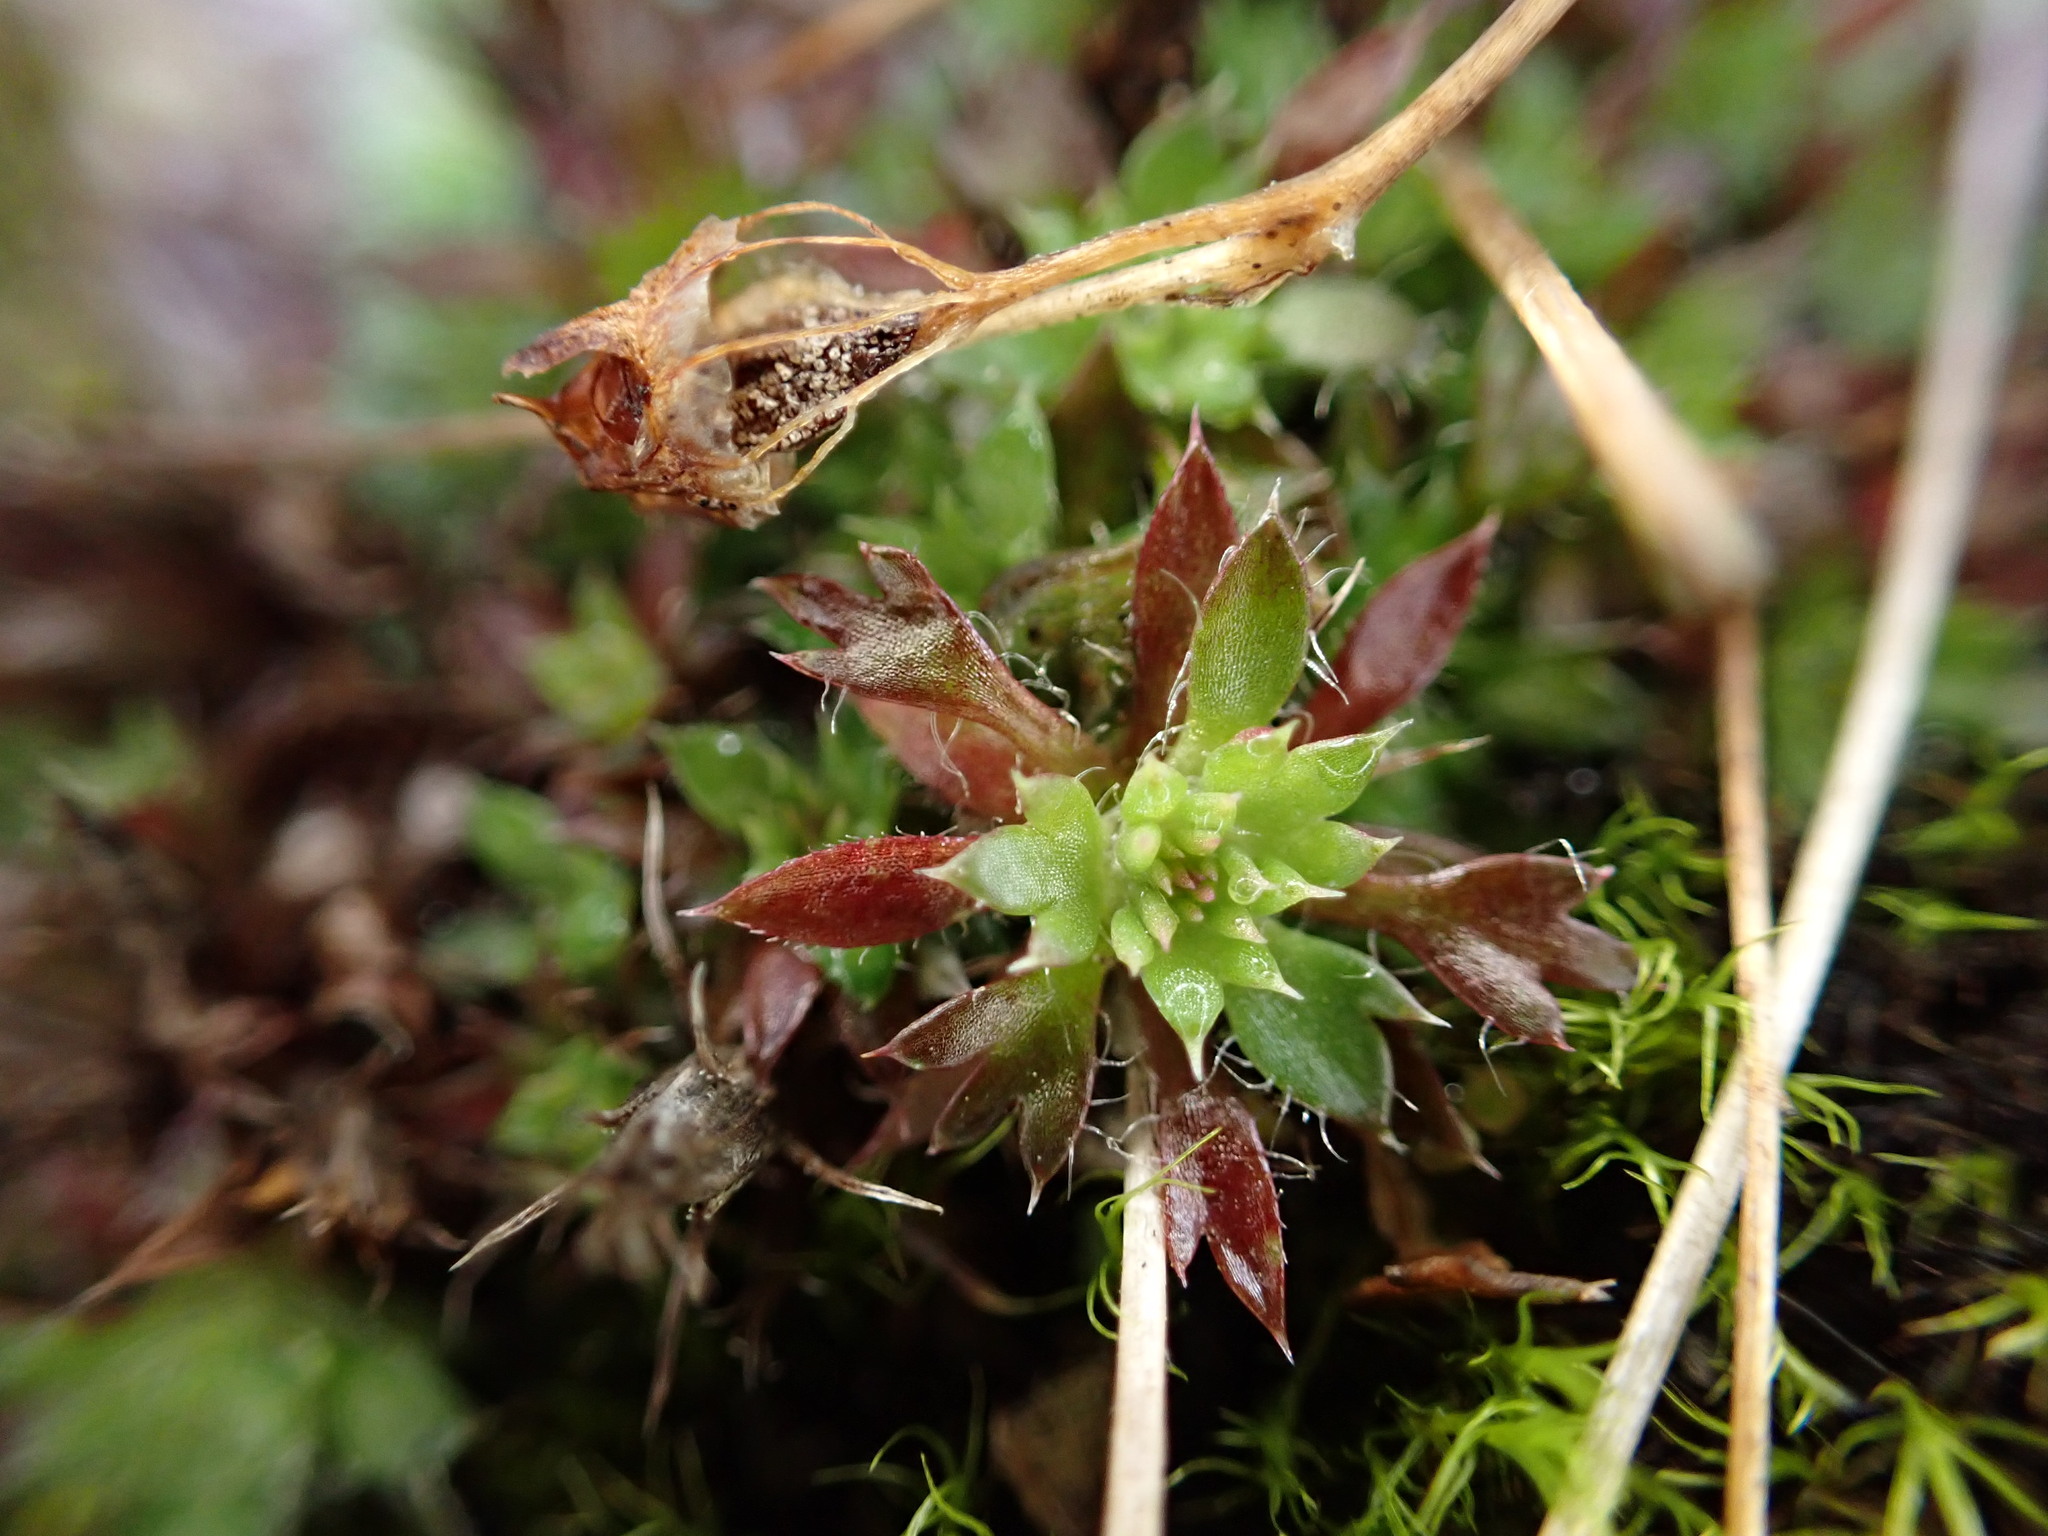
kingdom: Plantae
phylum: Tracheophyta
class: Magnoliopsida
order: Saxifragales
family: Saxifragaceae
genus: Saxifraga
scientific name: Saxifraga fragosoi
